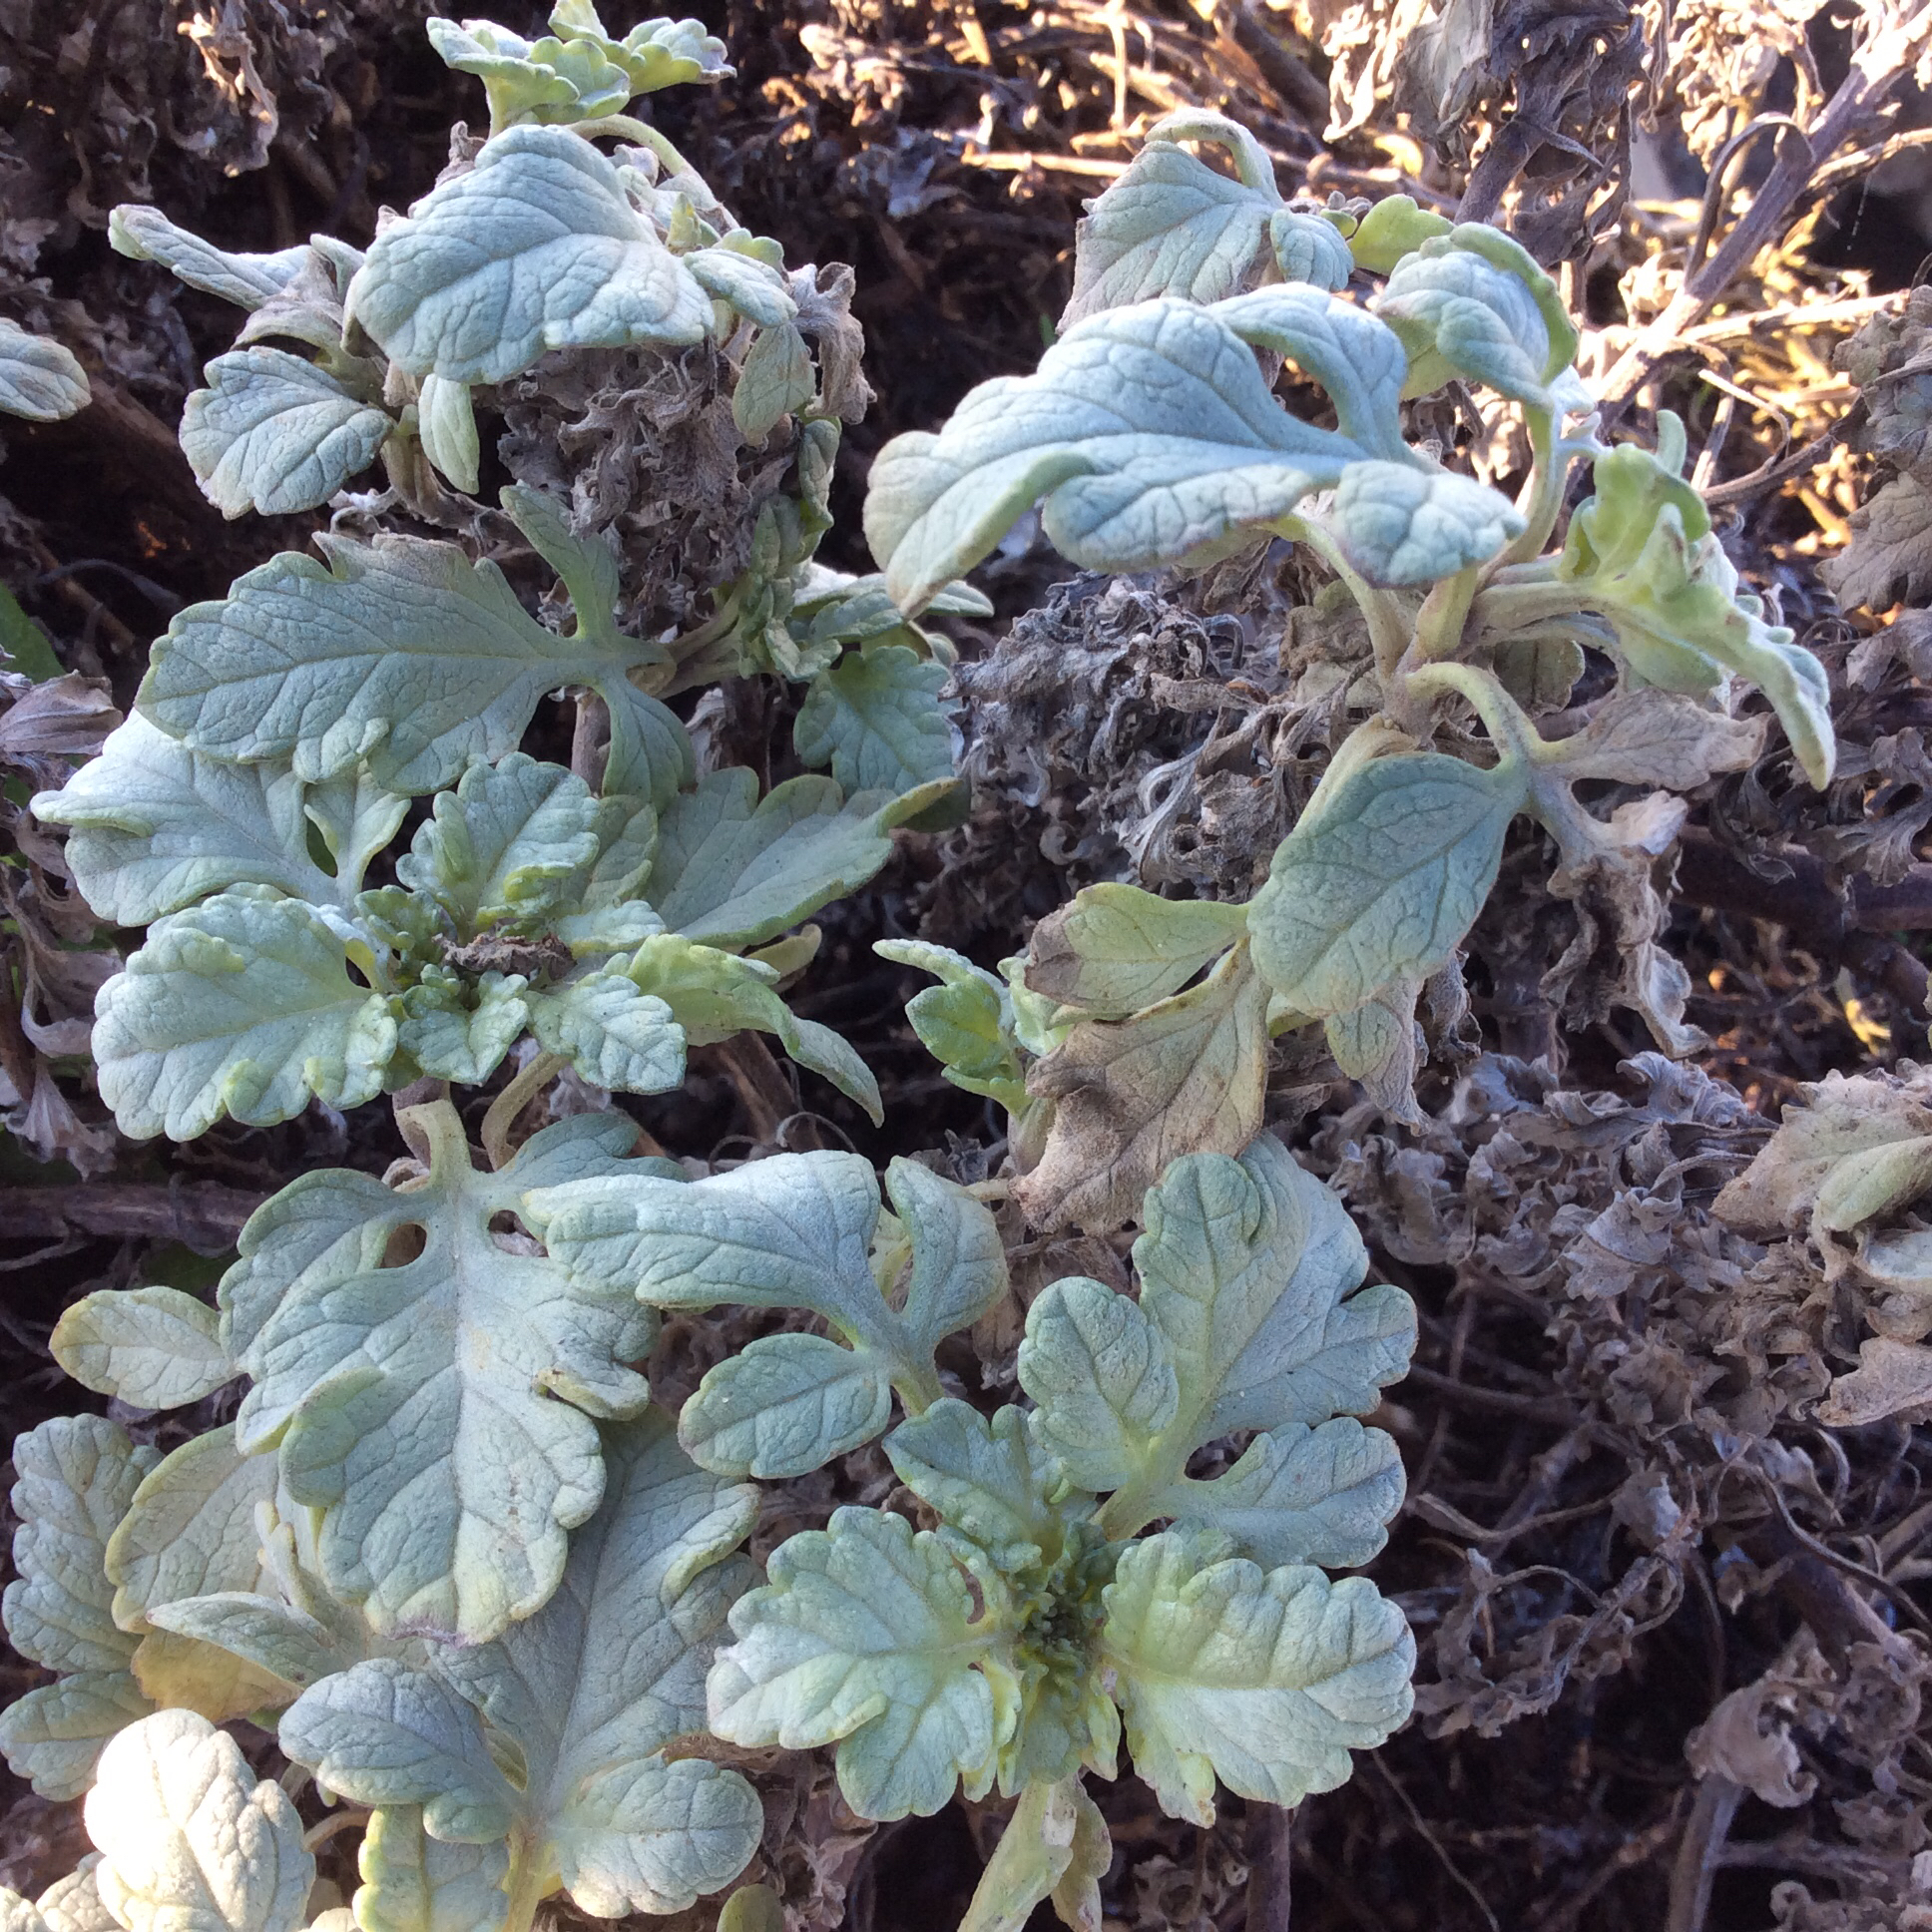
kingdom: Plantae
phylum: Tracheophyta
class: Magnoliopsida
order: Asterales
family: Asteraceae
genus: Ambrosia
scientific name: Ambrosia chamissonis
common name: Beachbur
